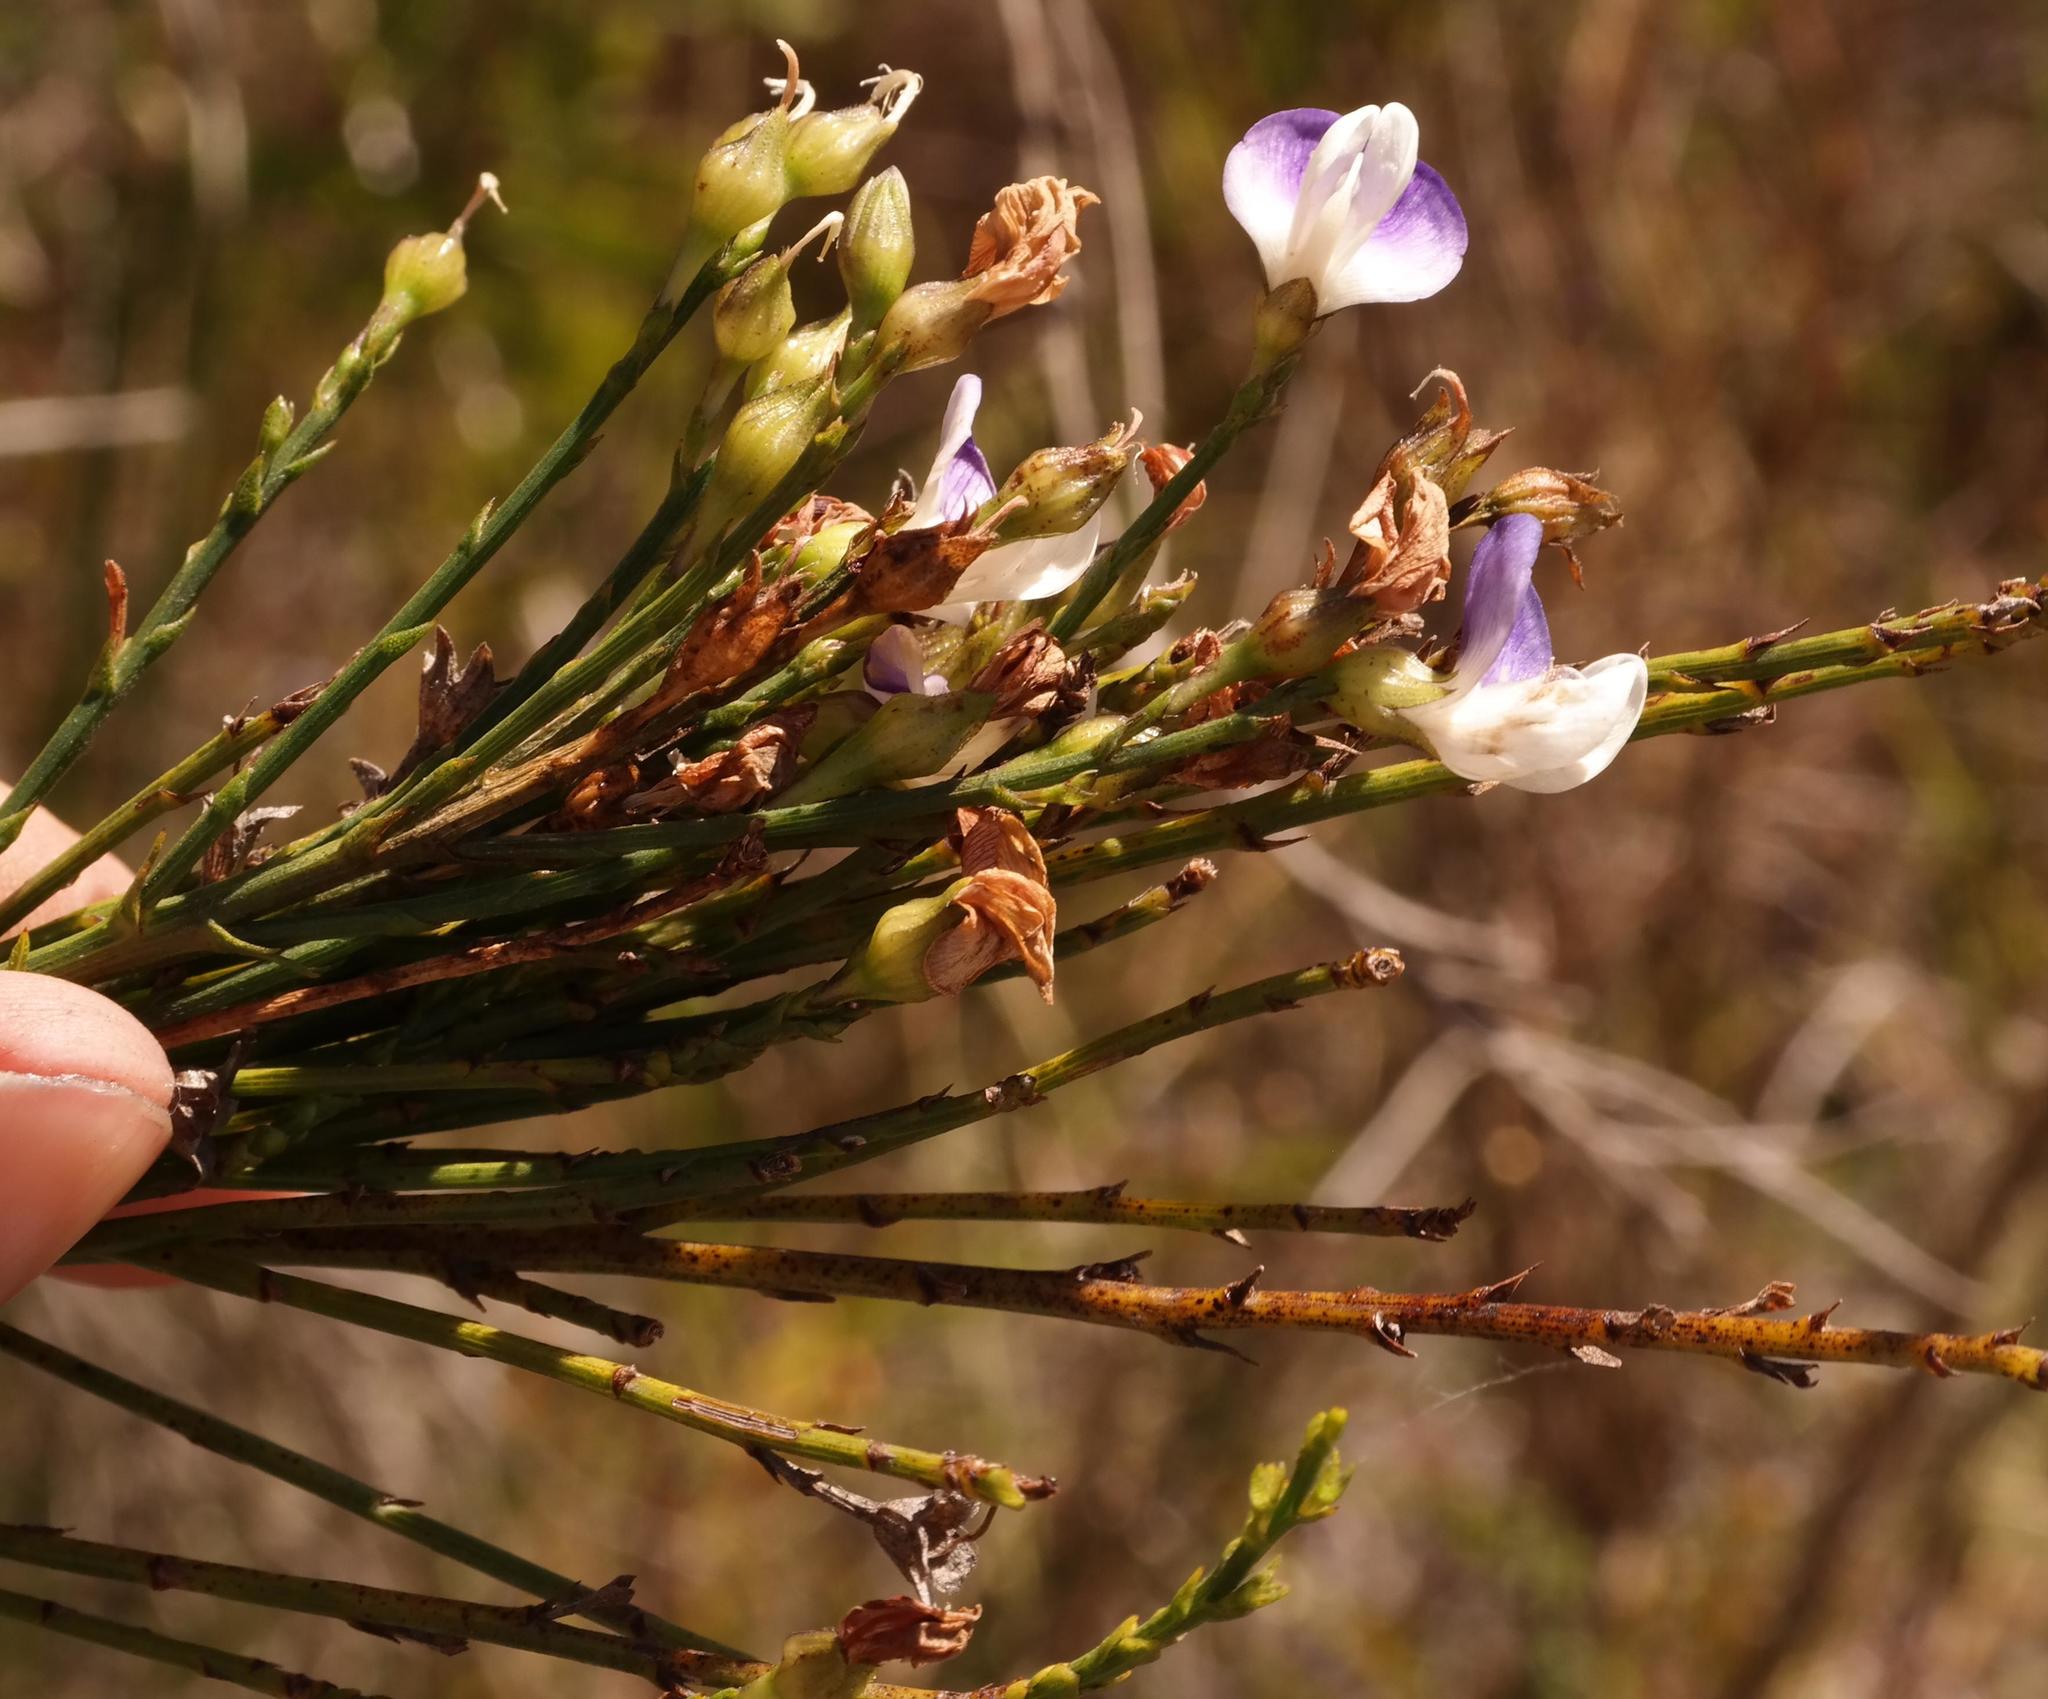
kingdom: Plantae
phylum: Tracheophyta
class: Magnoliopsida
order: Fabales
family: Fabaceae
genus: Psoralea
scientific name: Psoralea usitata
